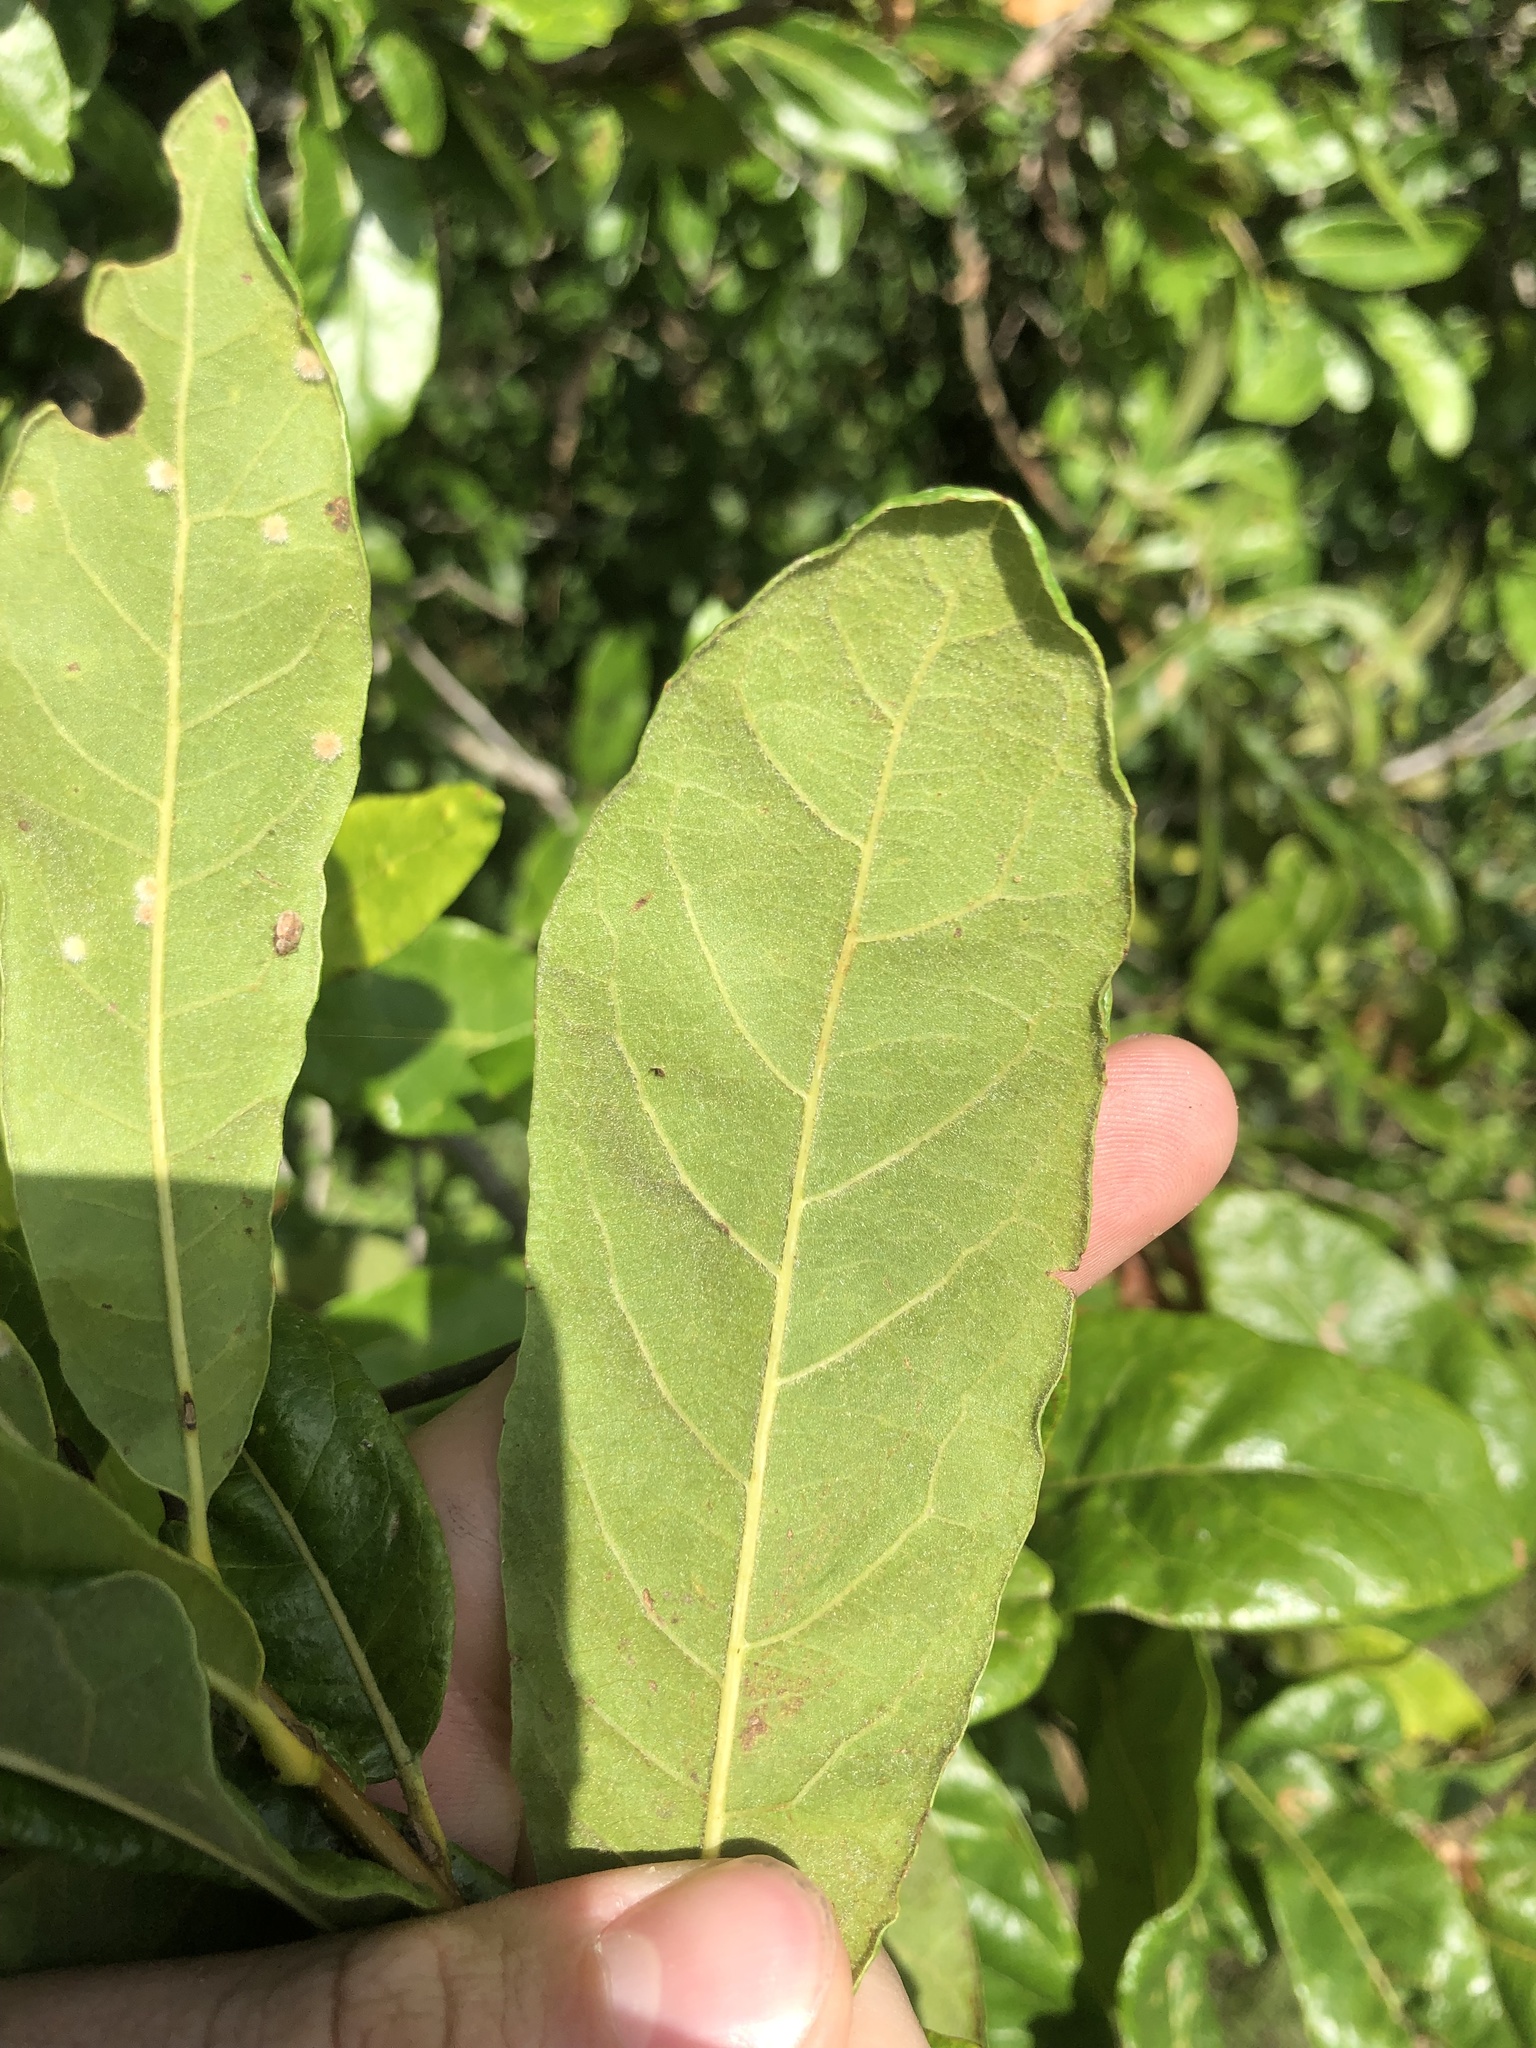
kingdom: Plantae
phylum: Tracheophyta
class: Magnoliopsida
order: Fagales
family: Fagaceae
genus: Quercus
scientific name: Quercus oglethorpensis
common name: Oglethorpe oak
